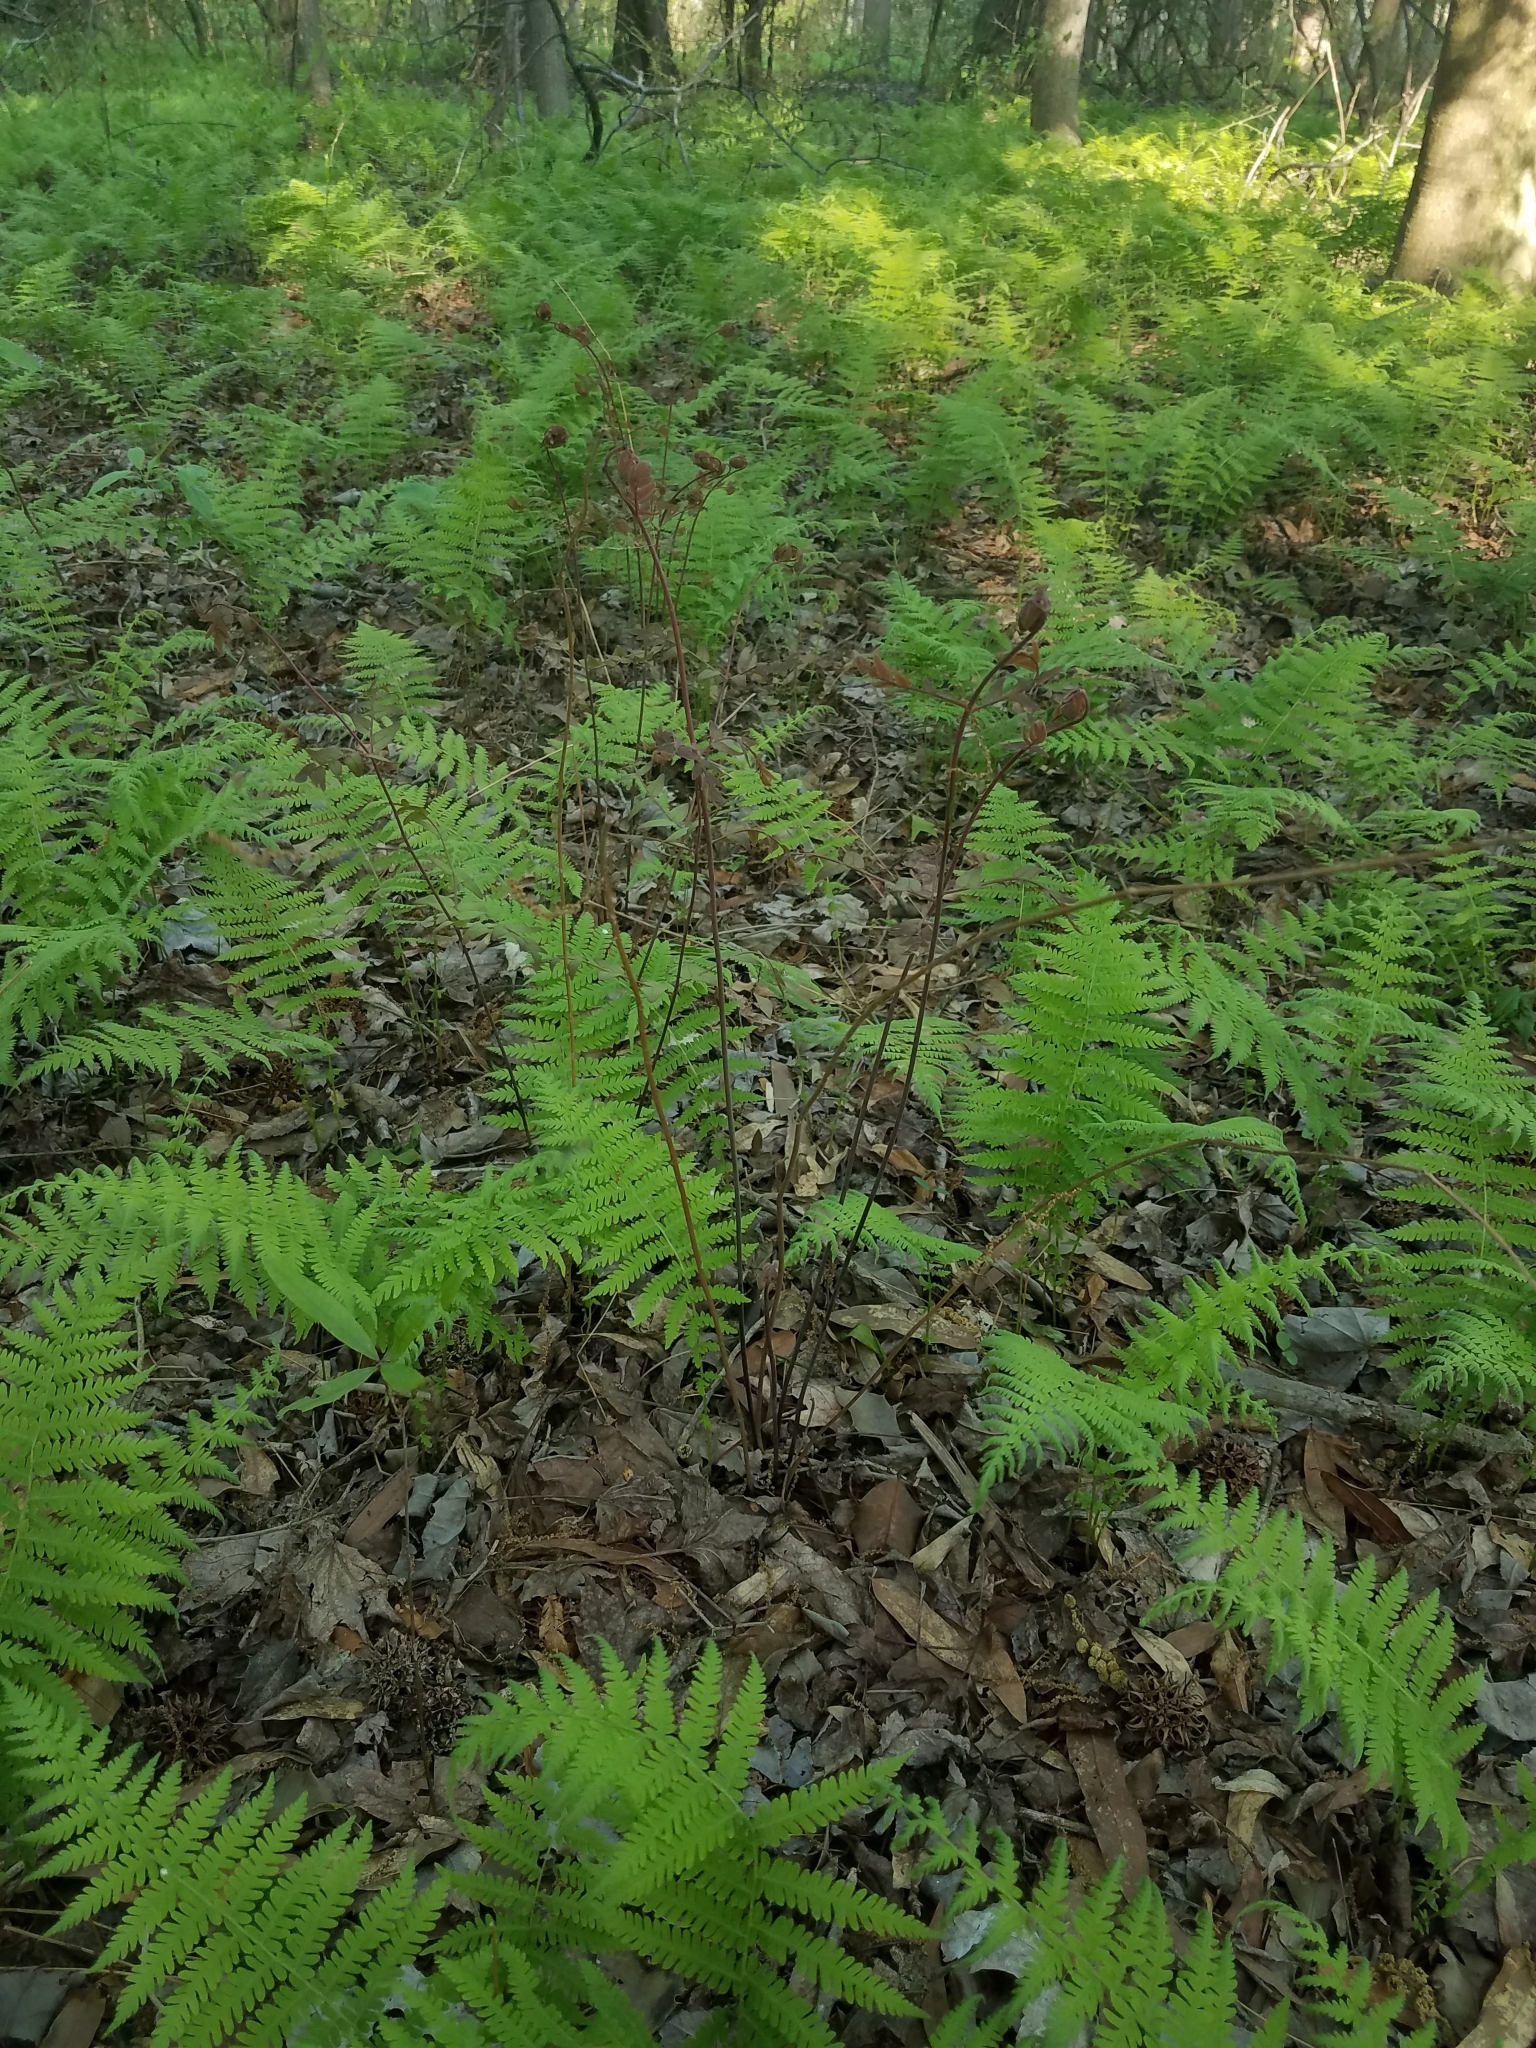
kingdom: Plantae
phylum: Tracheophyta
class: Polypodiopsida
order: Polypodiales
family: Thelypteridaceae
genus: Amauropelta
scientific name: Amauropelta noveboracensis
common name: New york fern
